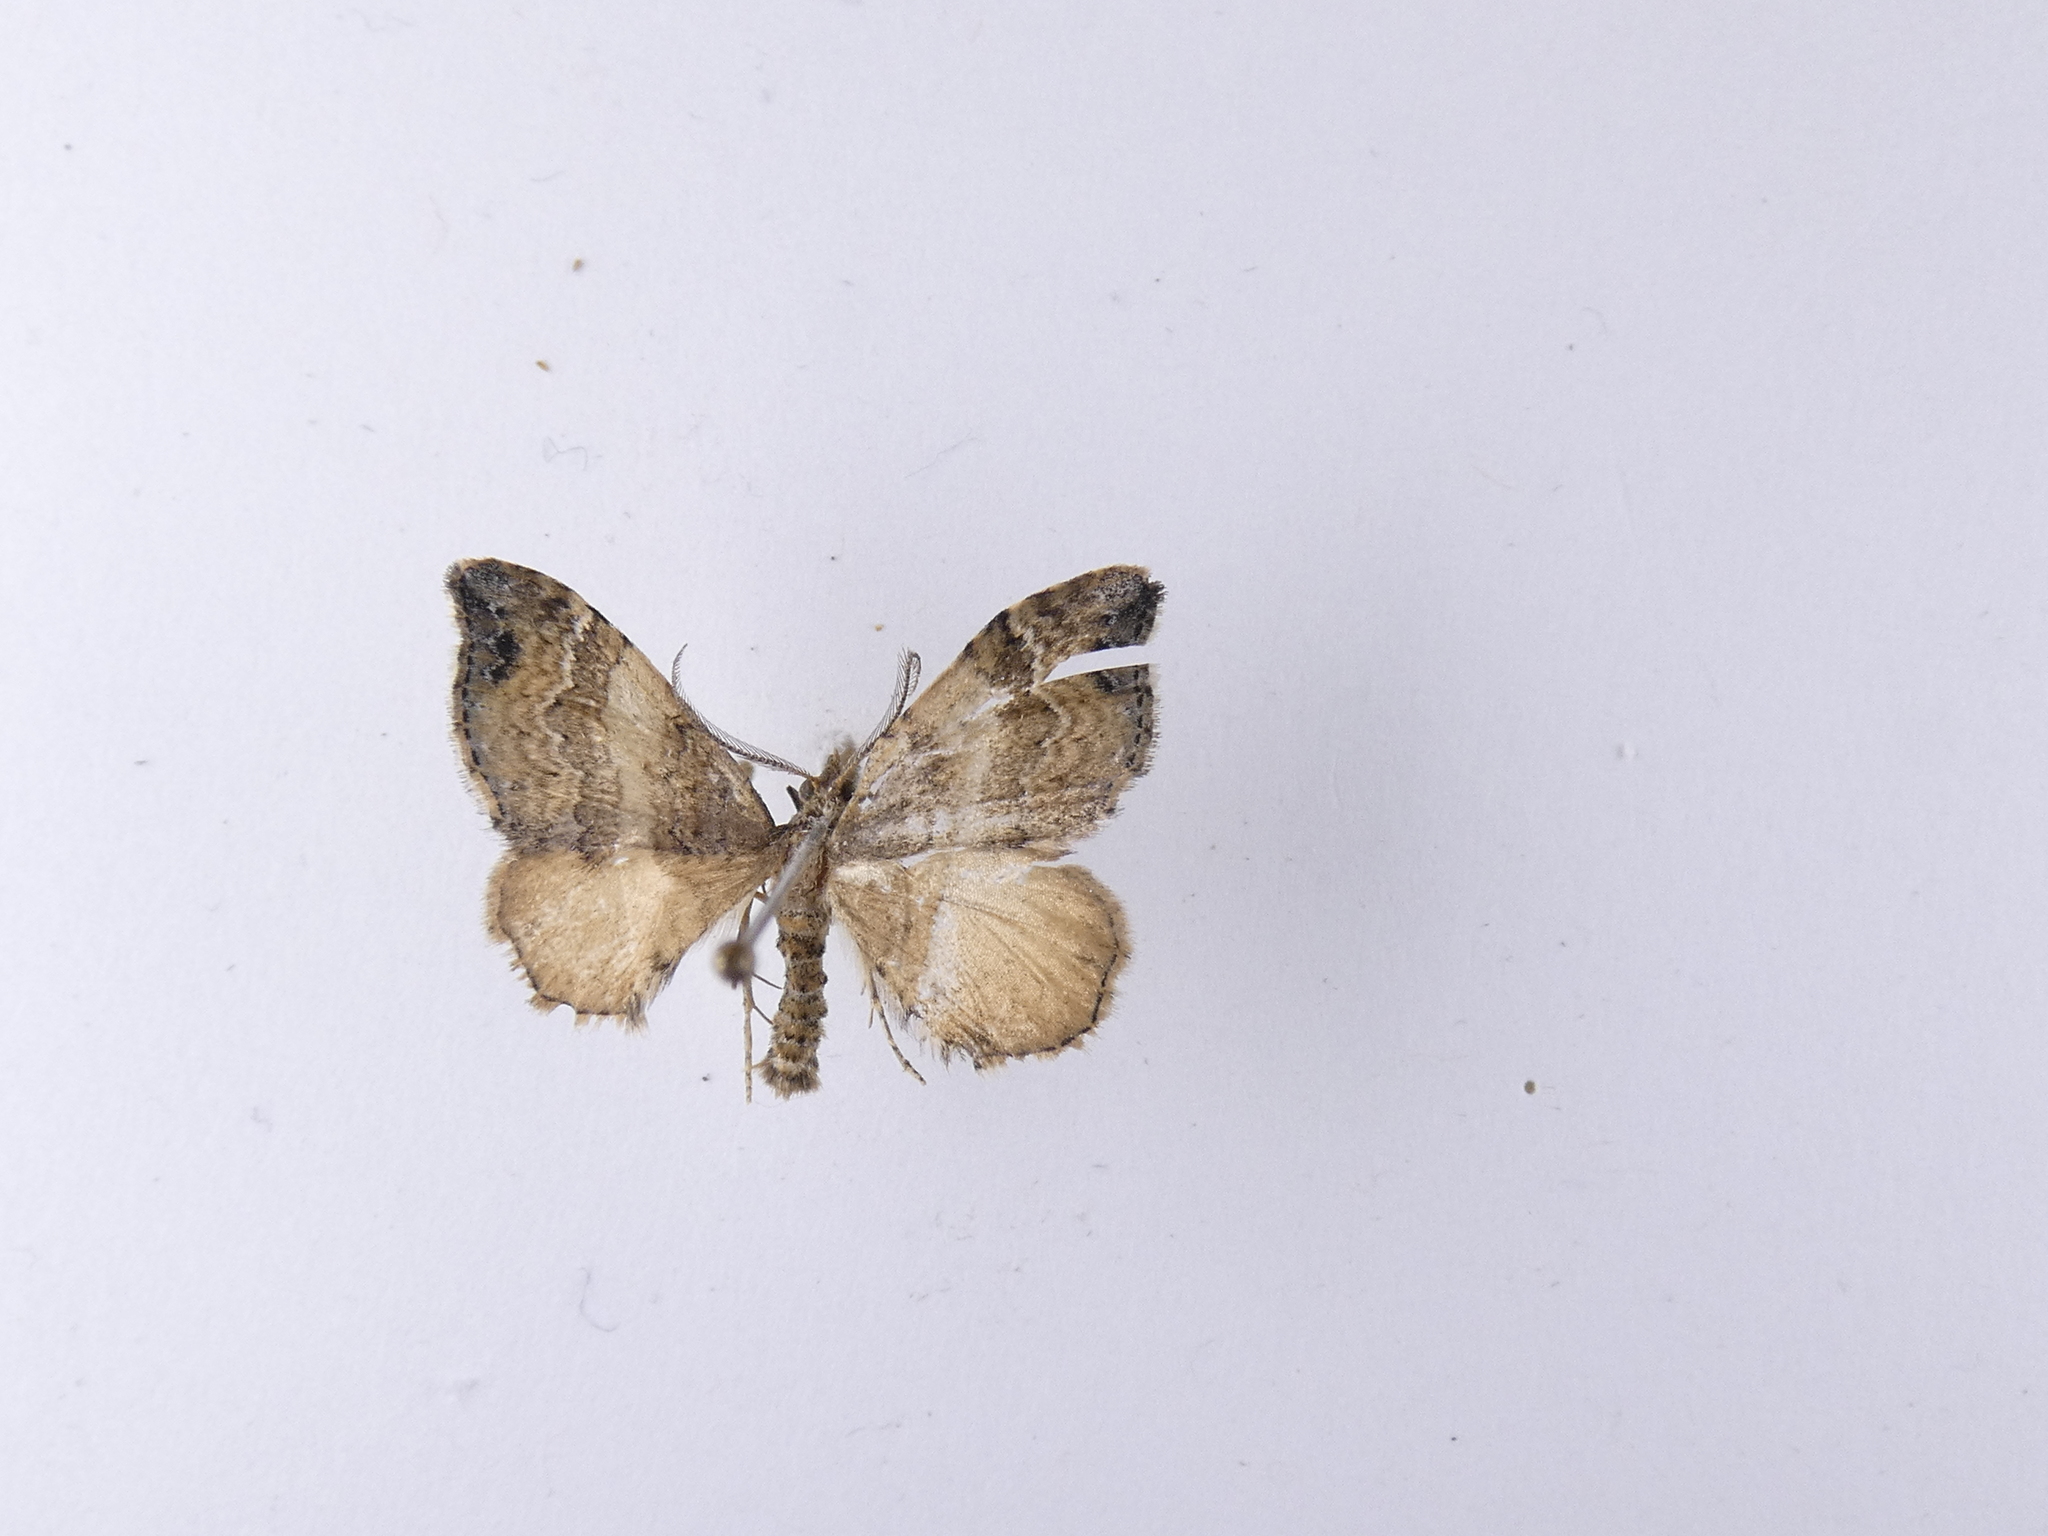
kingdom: Animalia
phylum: Arthropoda
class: Insecta
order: Lepidoptera
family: Geometridae
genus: Homodotis
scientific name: Homodotis megaspilata
